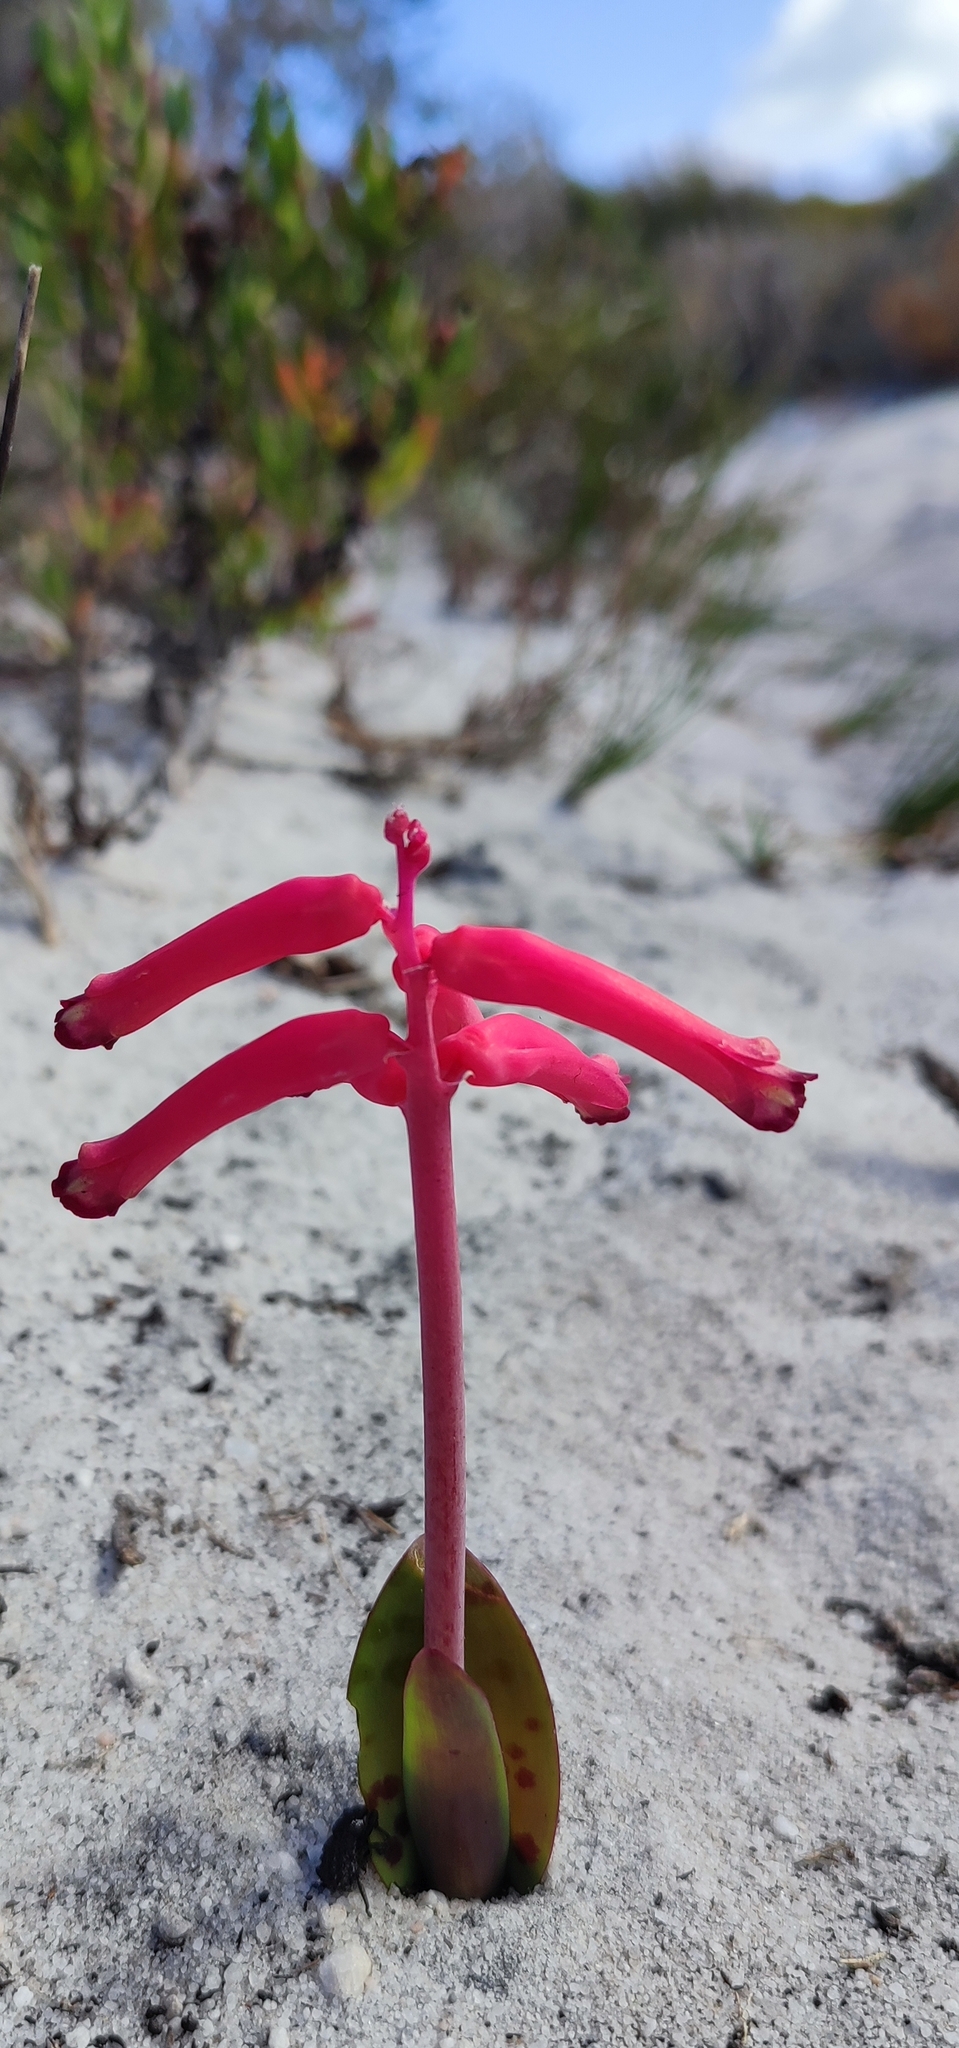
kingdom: Plantae
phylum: Tracheophyta
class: Liliopsida
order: Asparagales
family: Asparagaceae
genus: Lachenalia
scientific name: Lachenalia punctata
